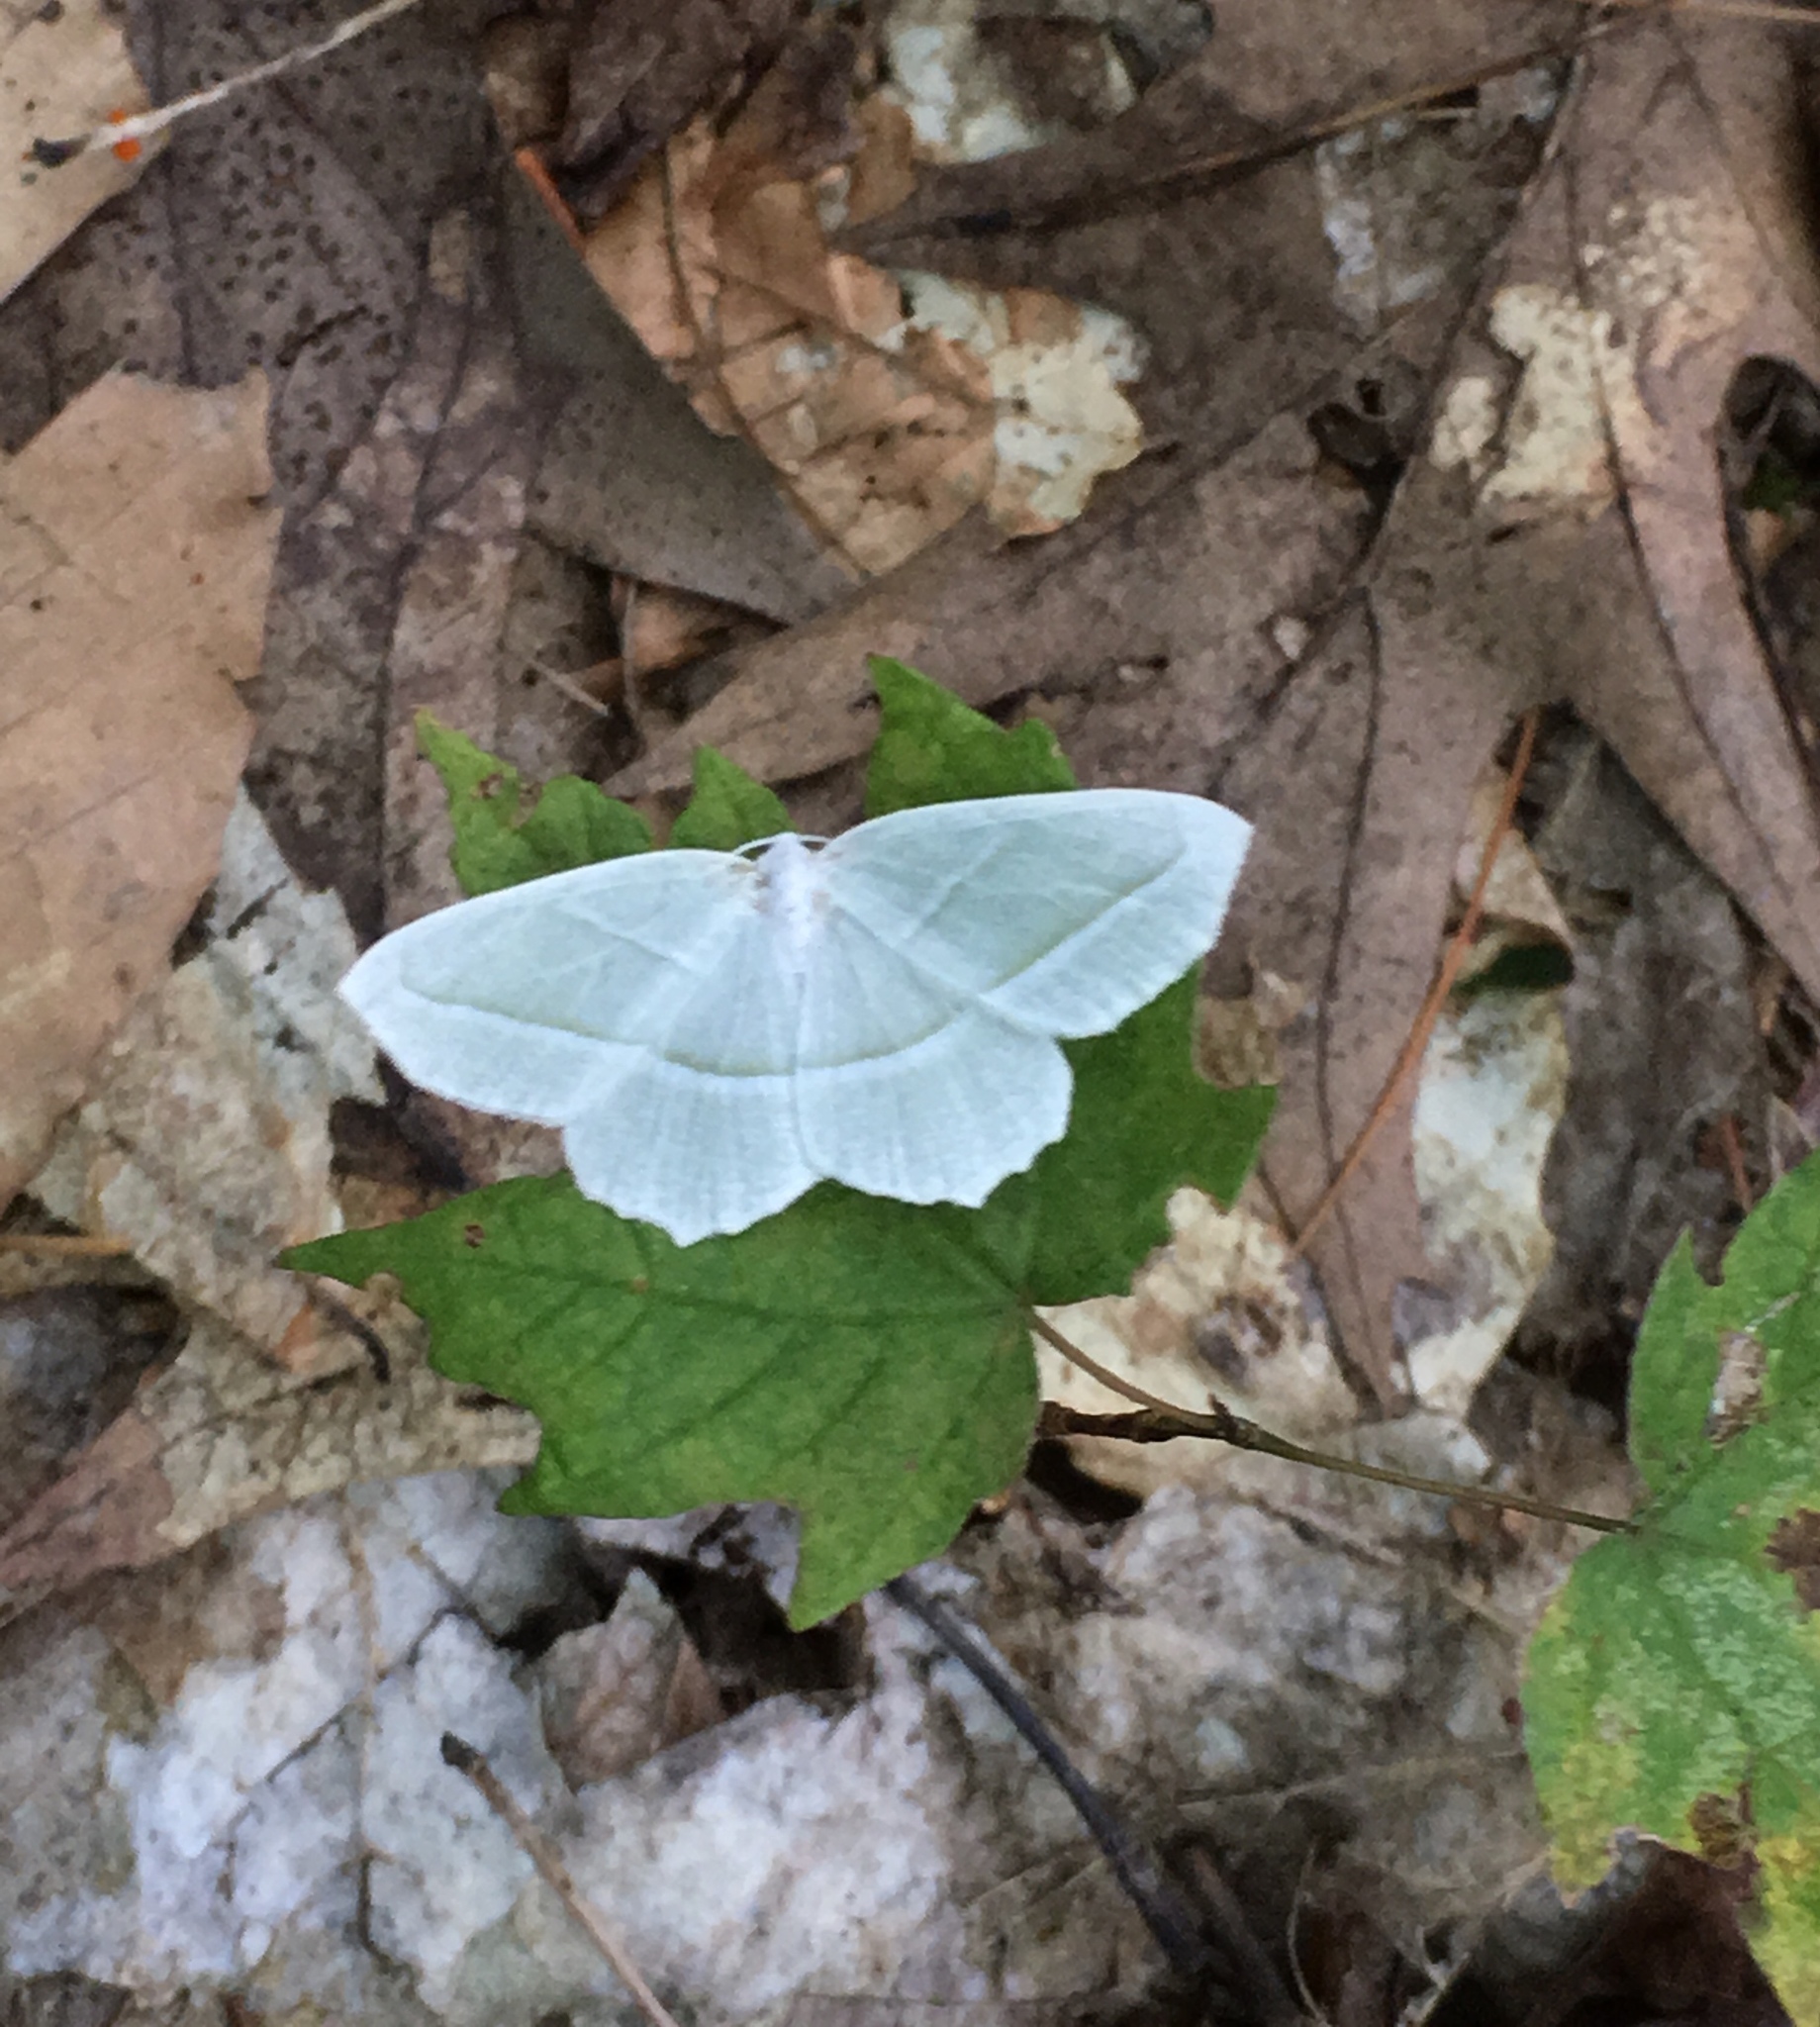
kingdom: Animalia
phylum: Arthropoda
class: Insecta
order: Lepidoptera
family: Geometridae
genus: Campaea
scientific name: Campaea perlata
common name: Fringed looper
